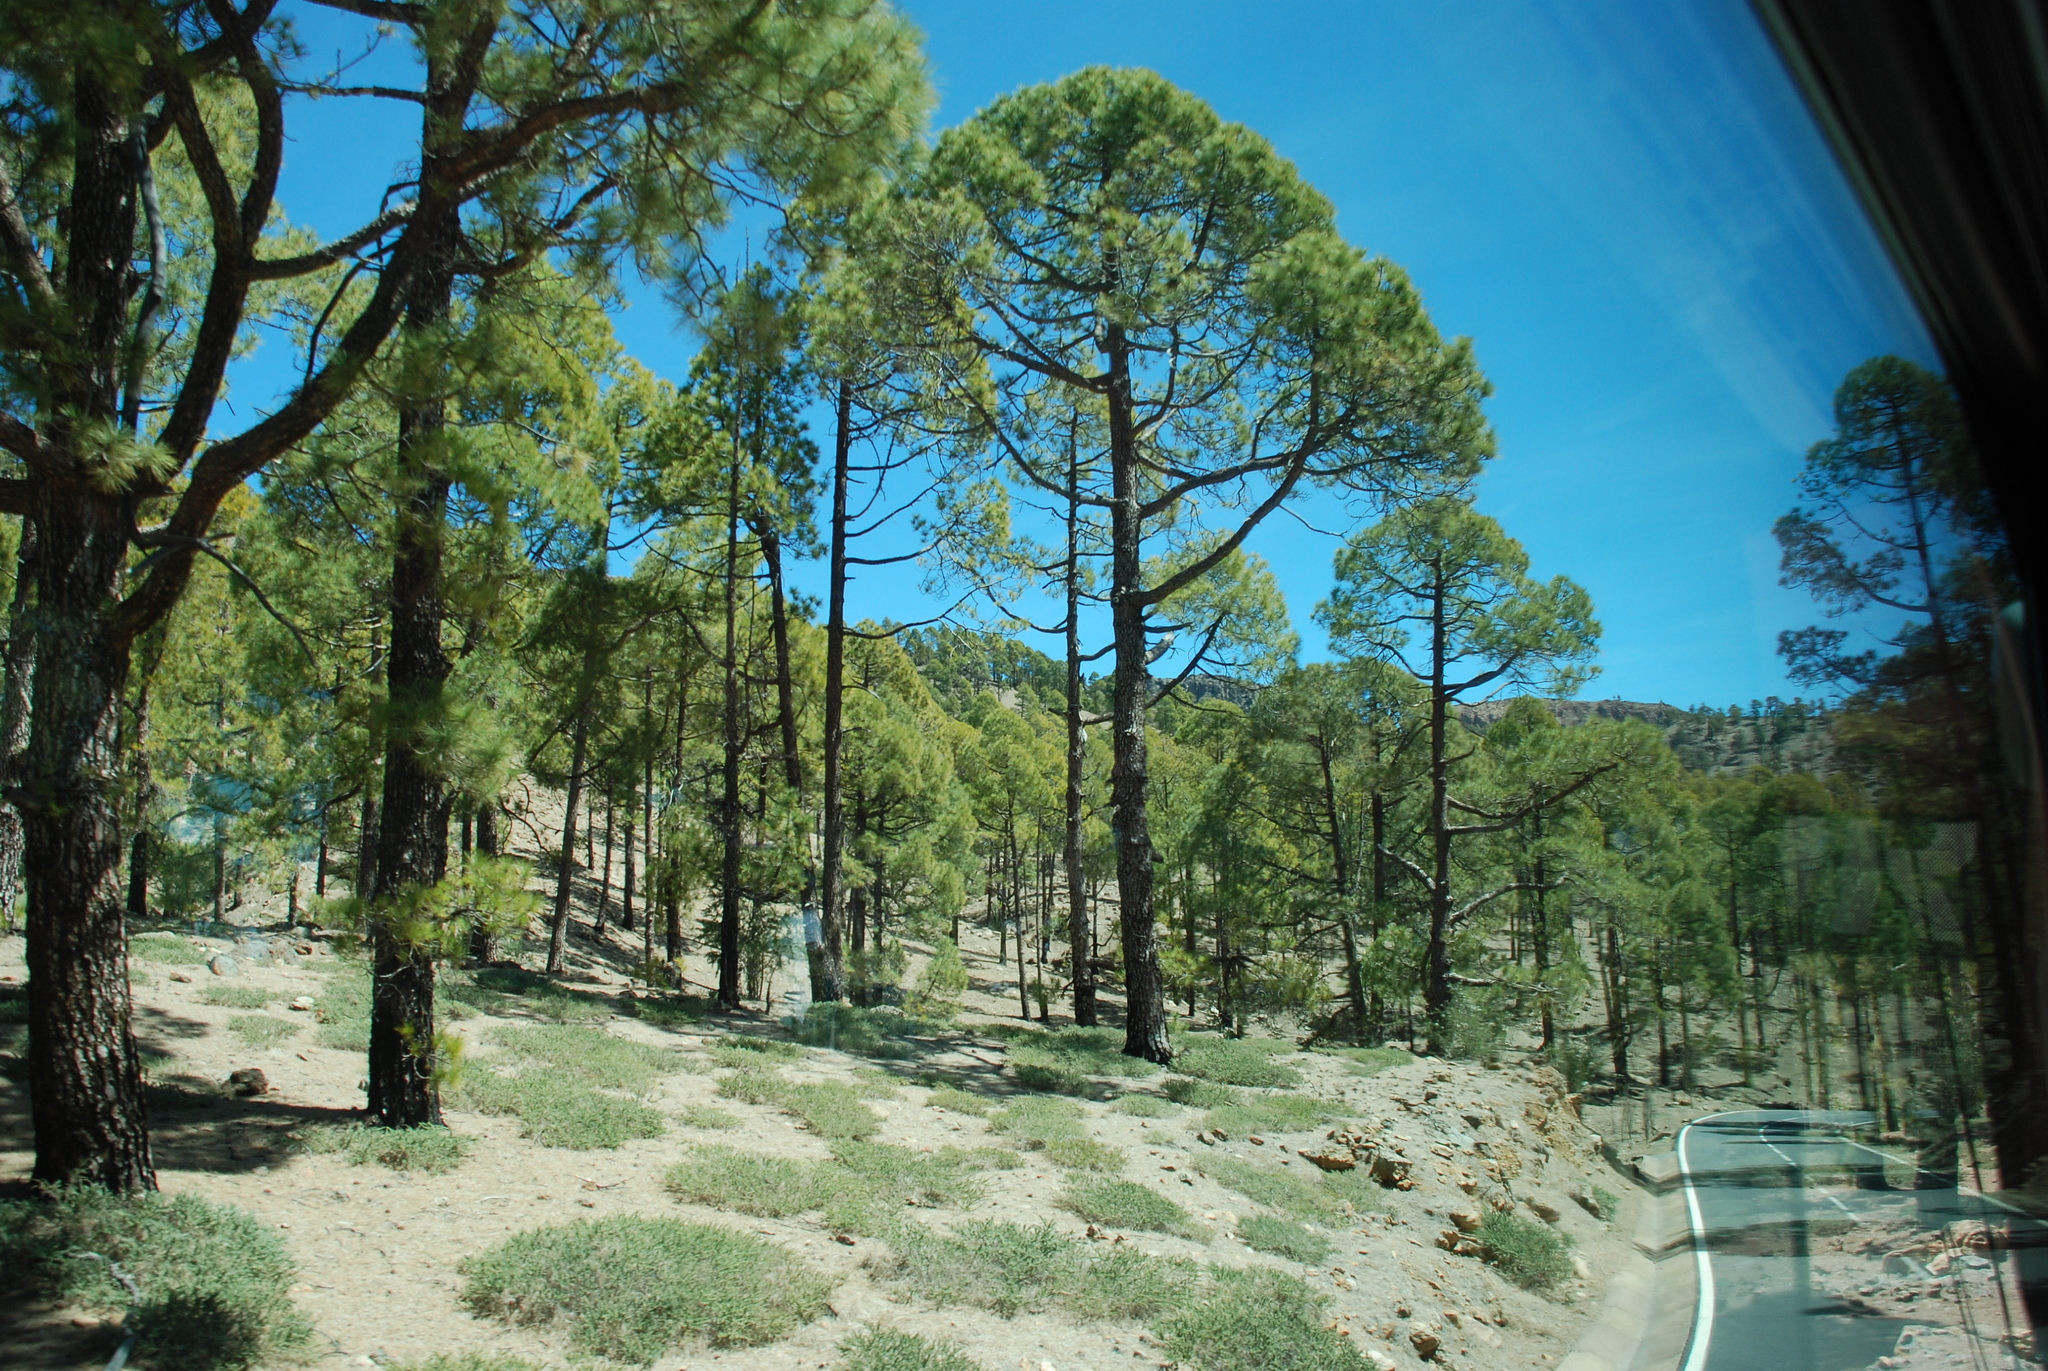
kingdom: Plantae
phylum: Tracheophyta
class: Pinopsida
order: Pinales
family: Pinaceae
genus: Pinus
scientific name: Pinus canariensis
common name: Canary islands pine
